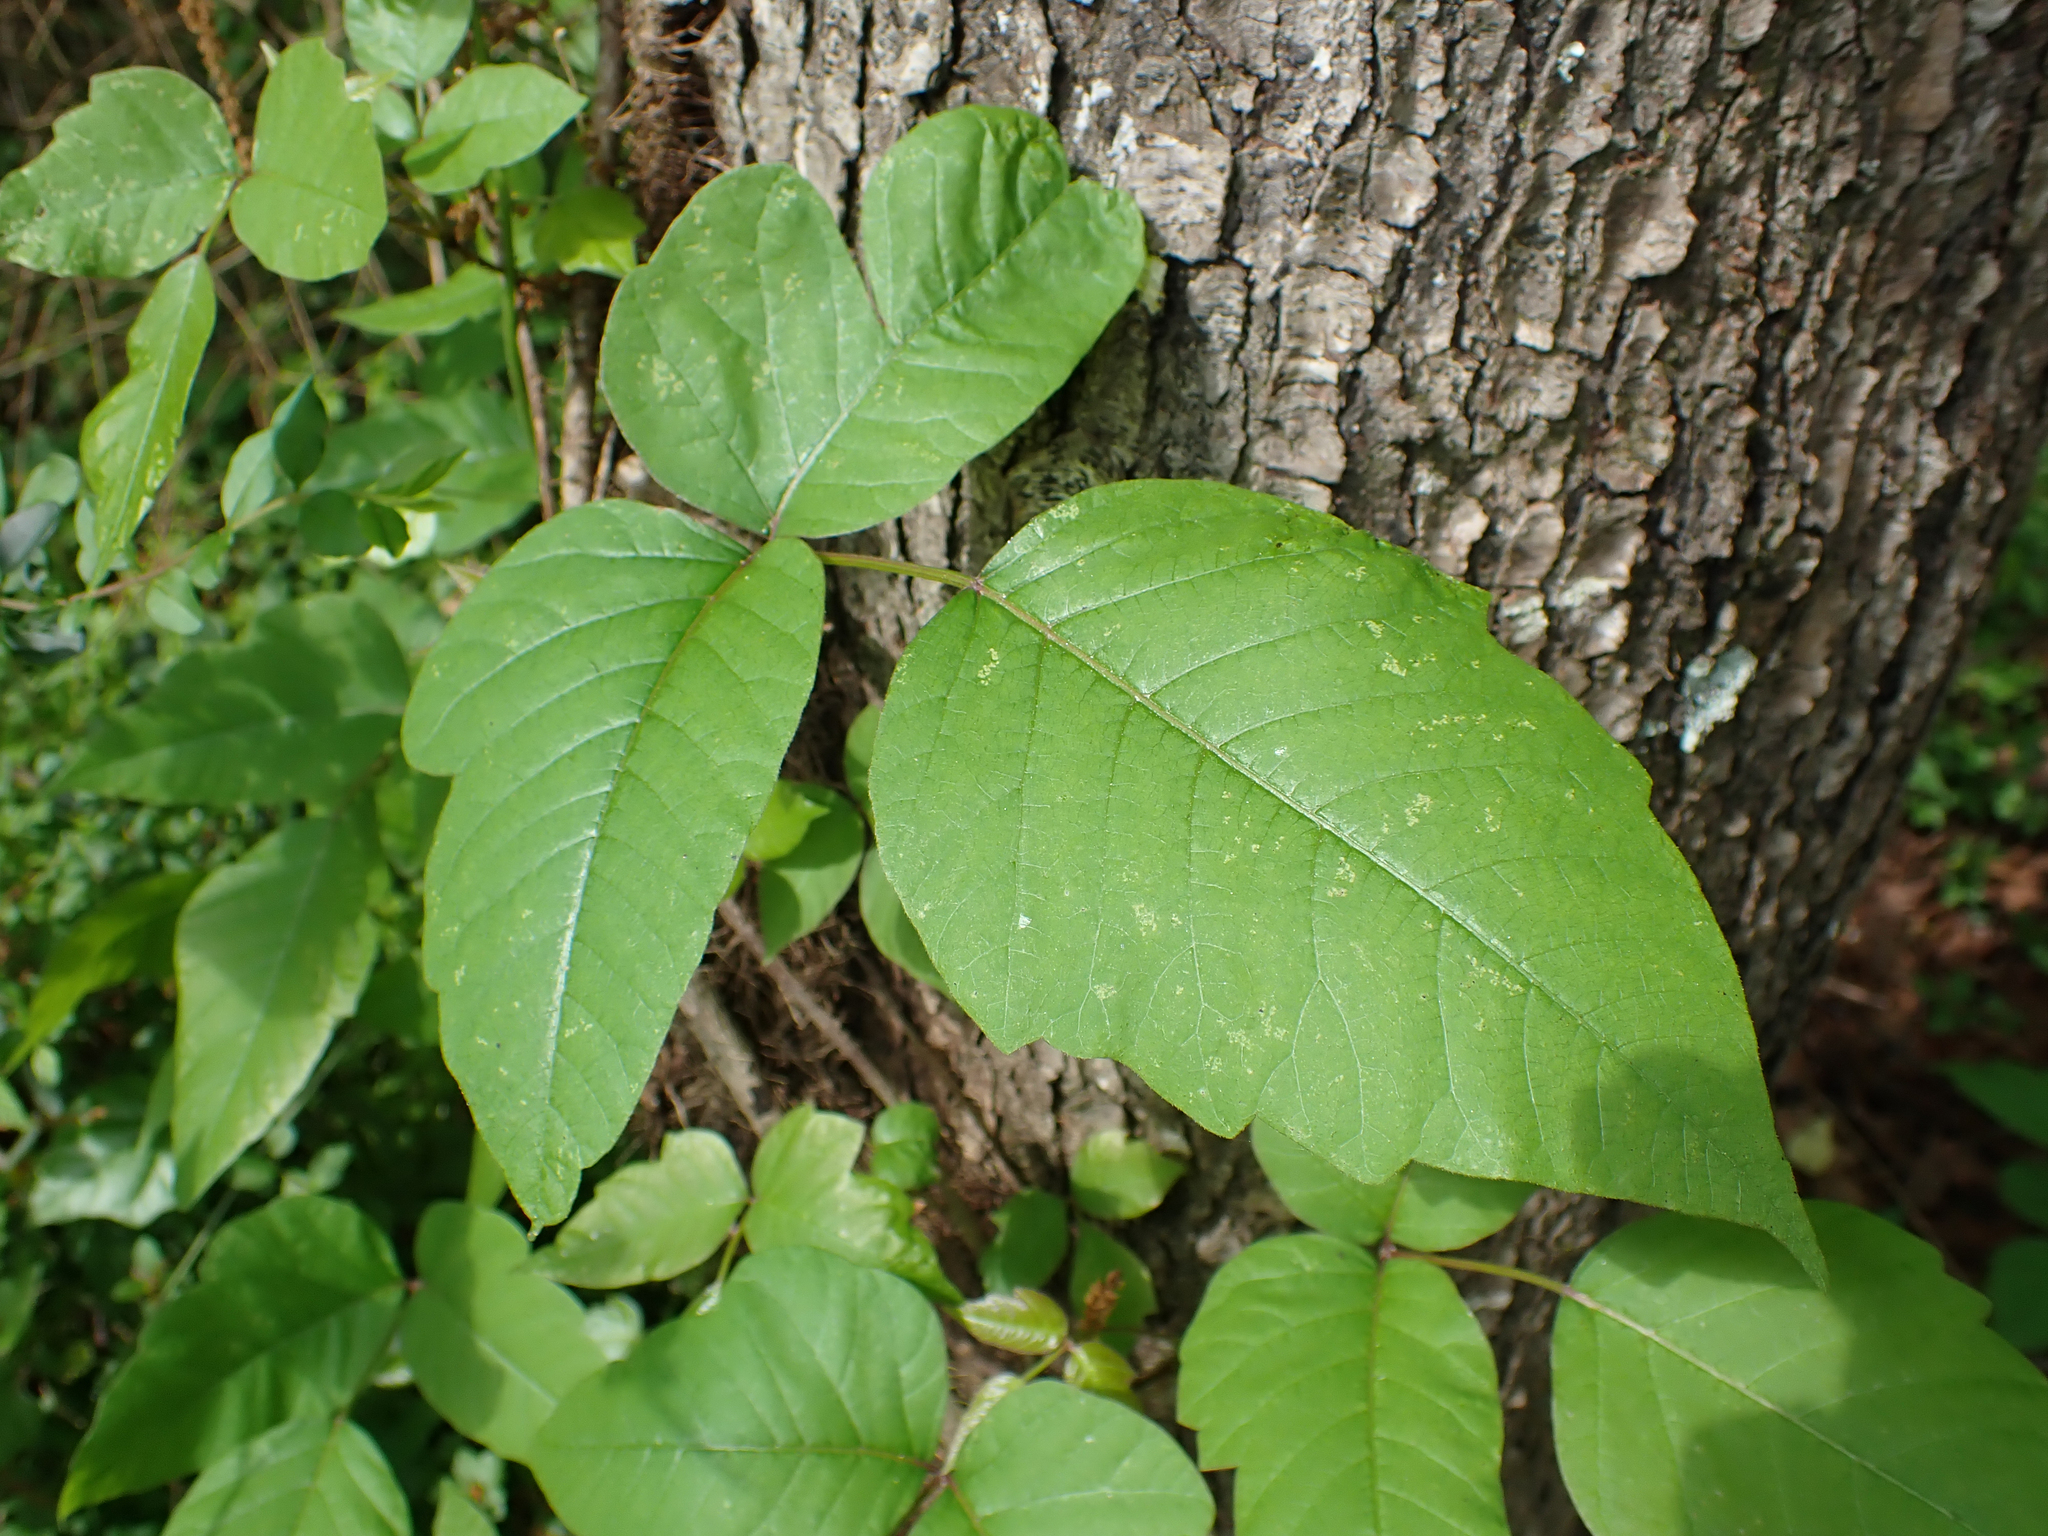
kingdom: Plantae
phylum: Tracheophyta
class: Magnoliopsida
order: Sapindales
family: Anacardiaceae
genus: Toxicodendron
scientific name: Toxicodendron radicans
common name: Poison ivy
